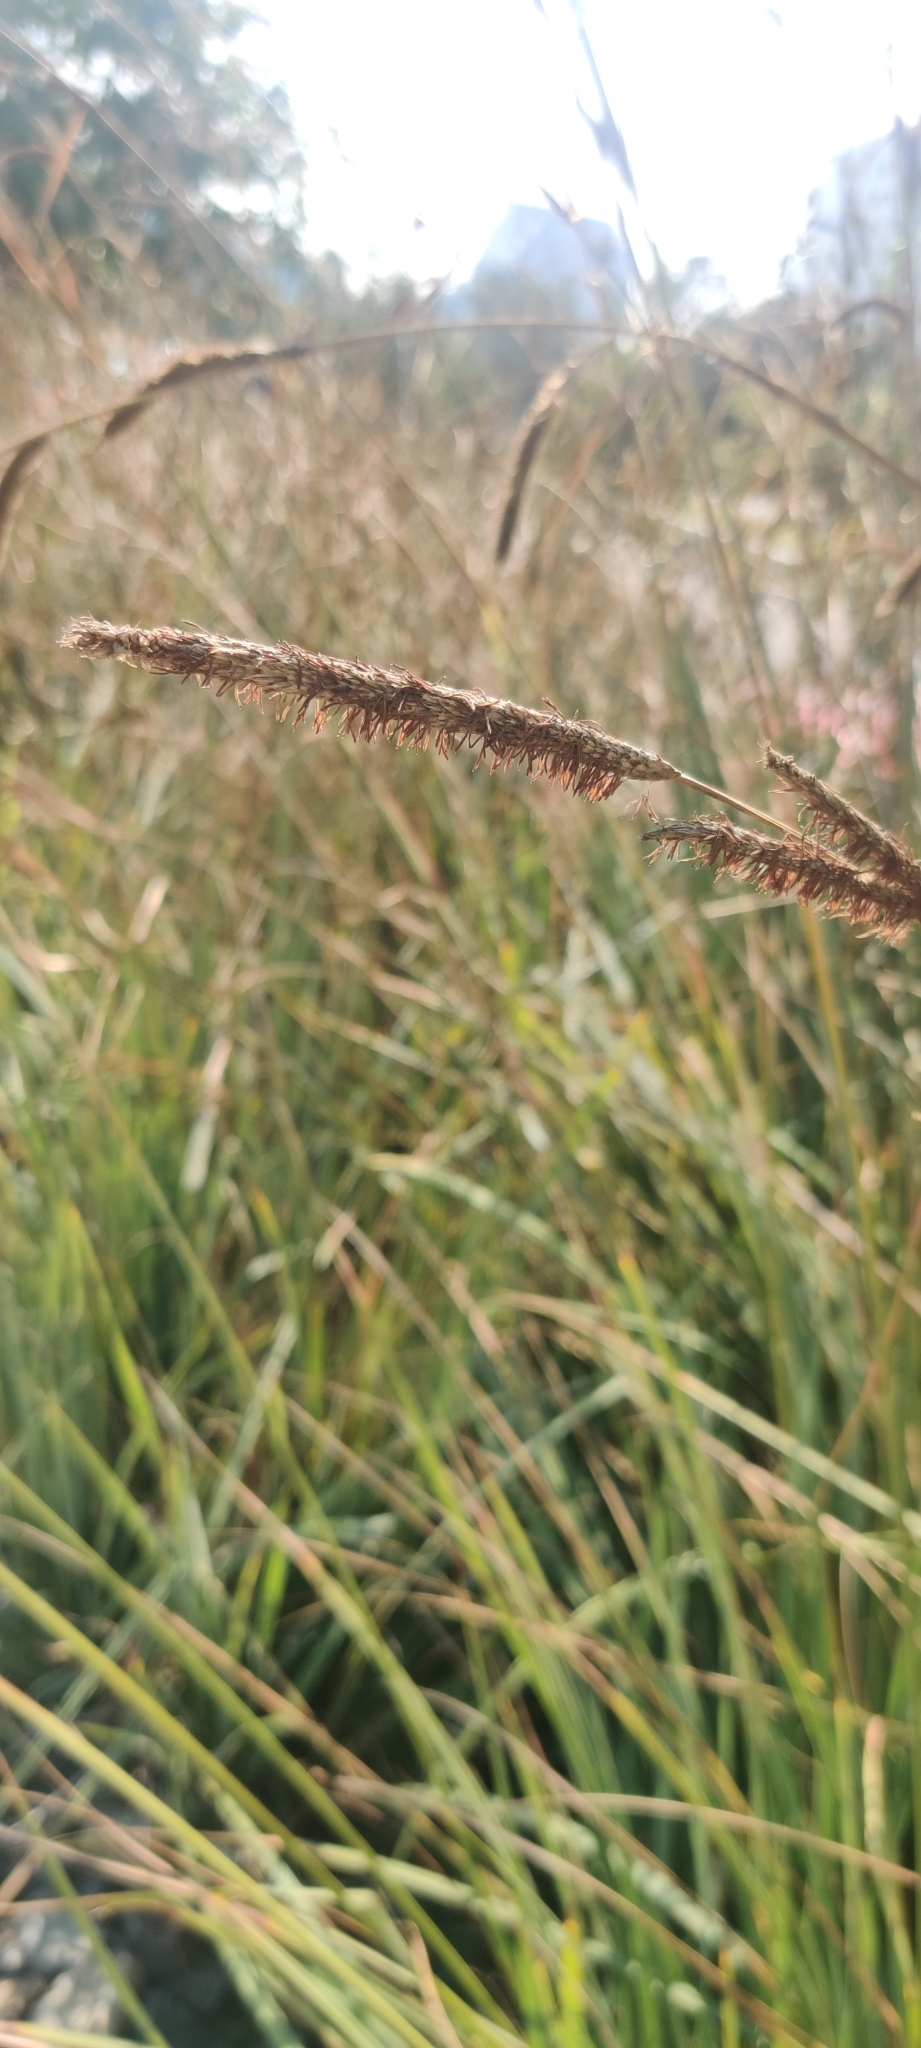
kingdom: Plantae
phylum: Tracheophyta
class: Liliopsida
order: Poales
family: Cyperaceae
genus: Carex
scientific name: Carex spissa
